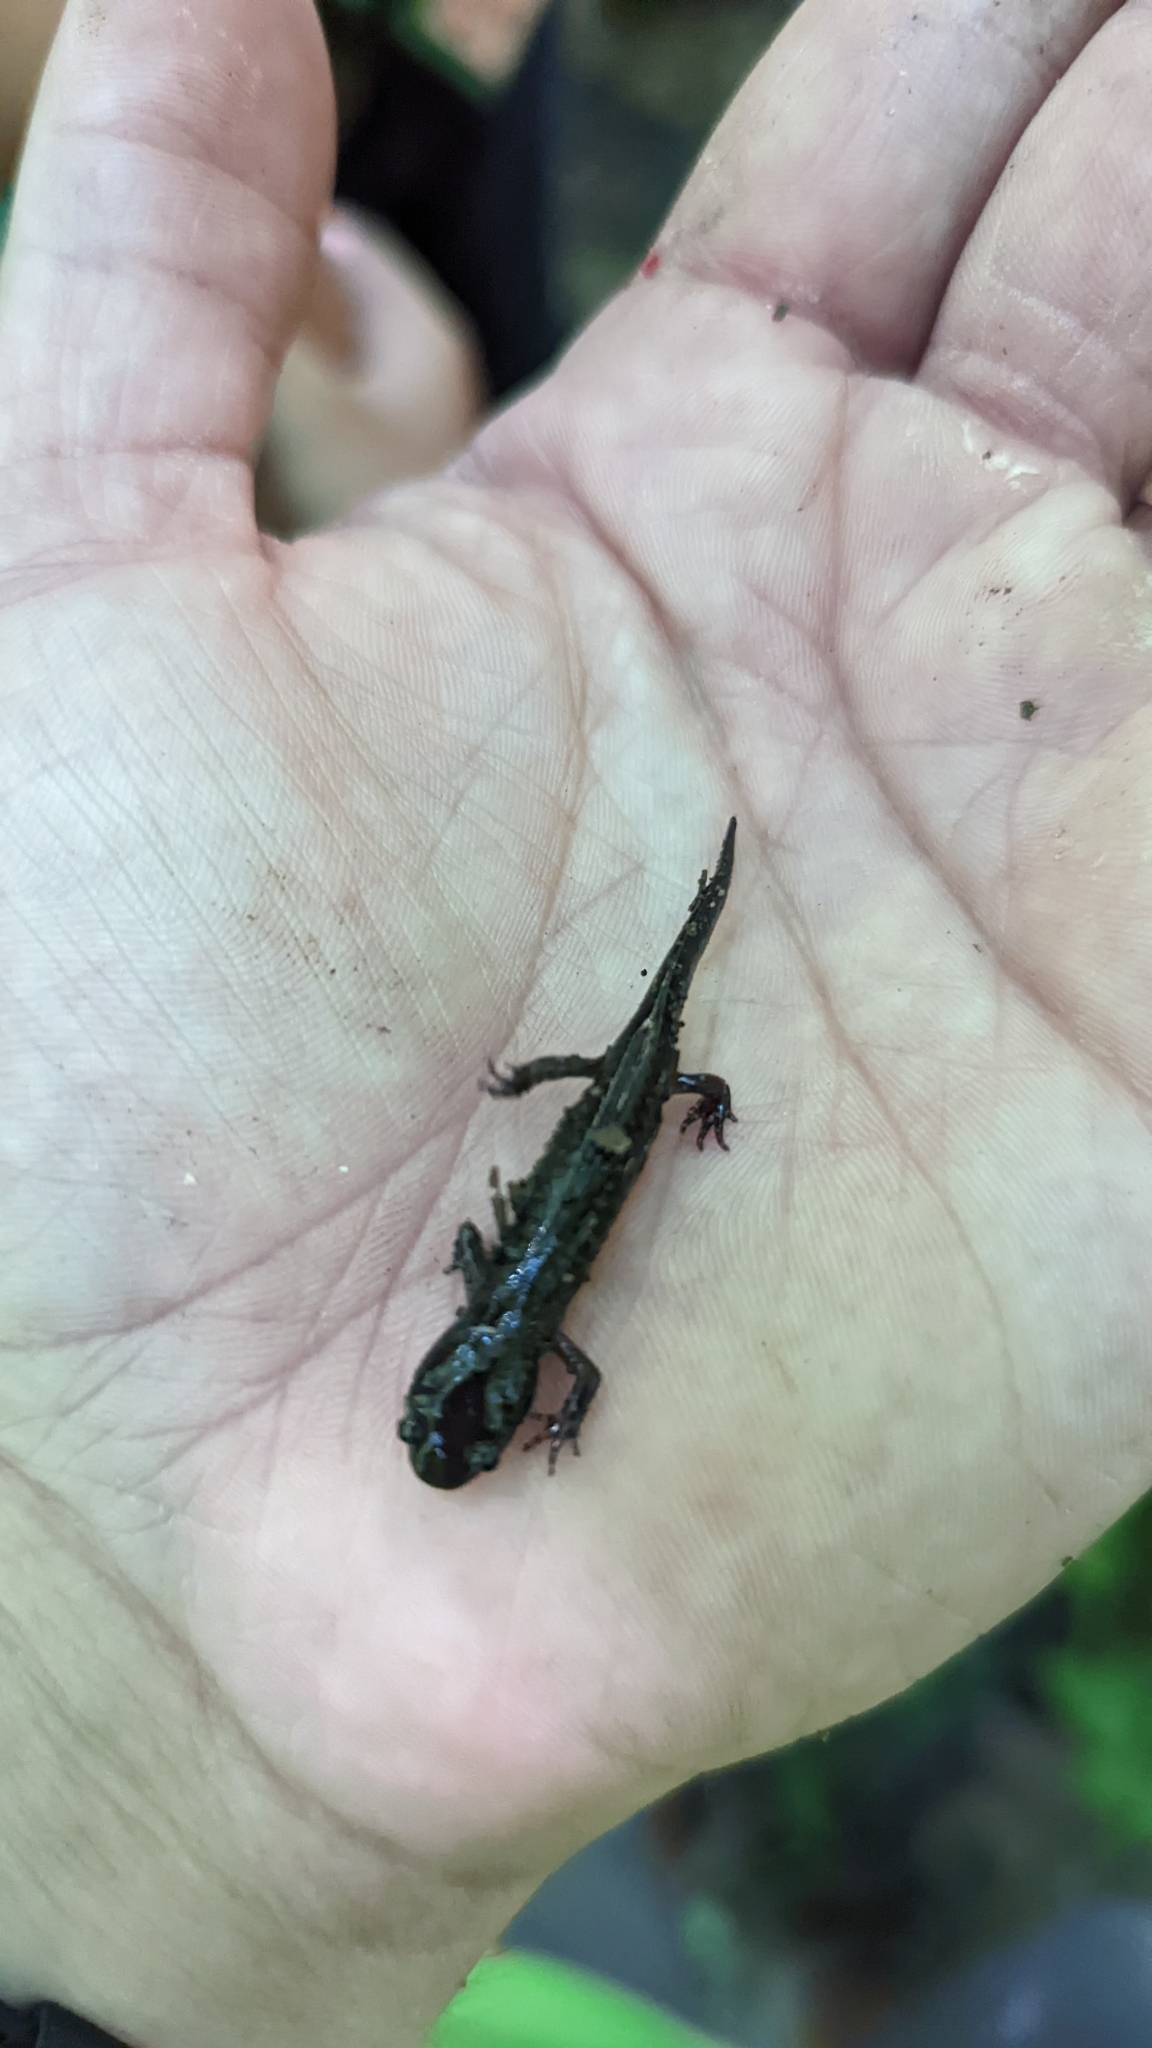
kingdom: Animalia
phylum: Chordata
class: Amphibia
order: Caudata
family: Ambystomatidae
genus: Ambystoma
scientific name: Ambystoma unisexual
